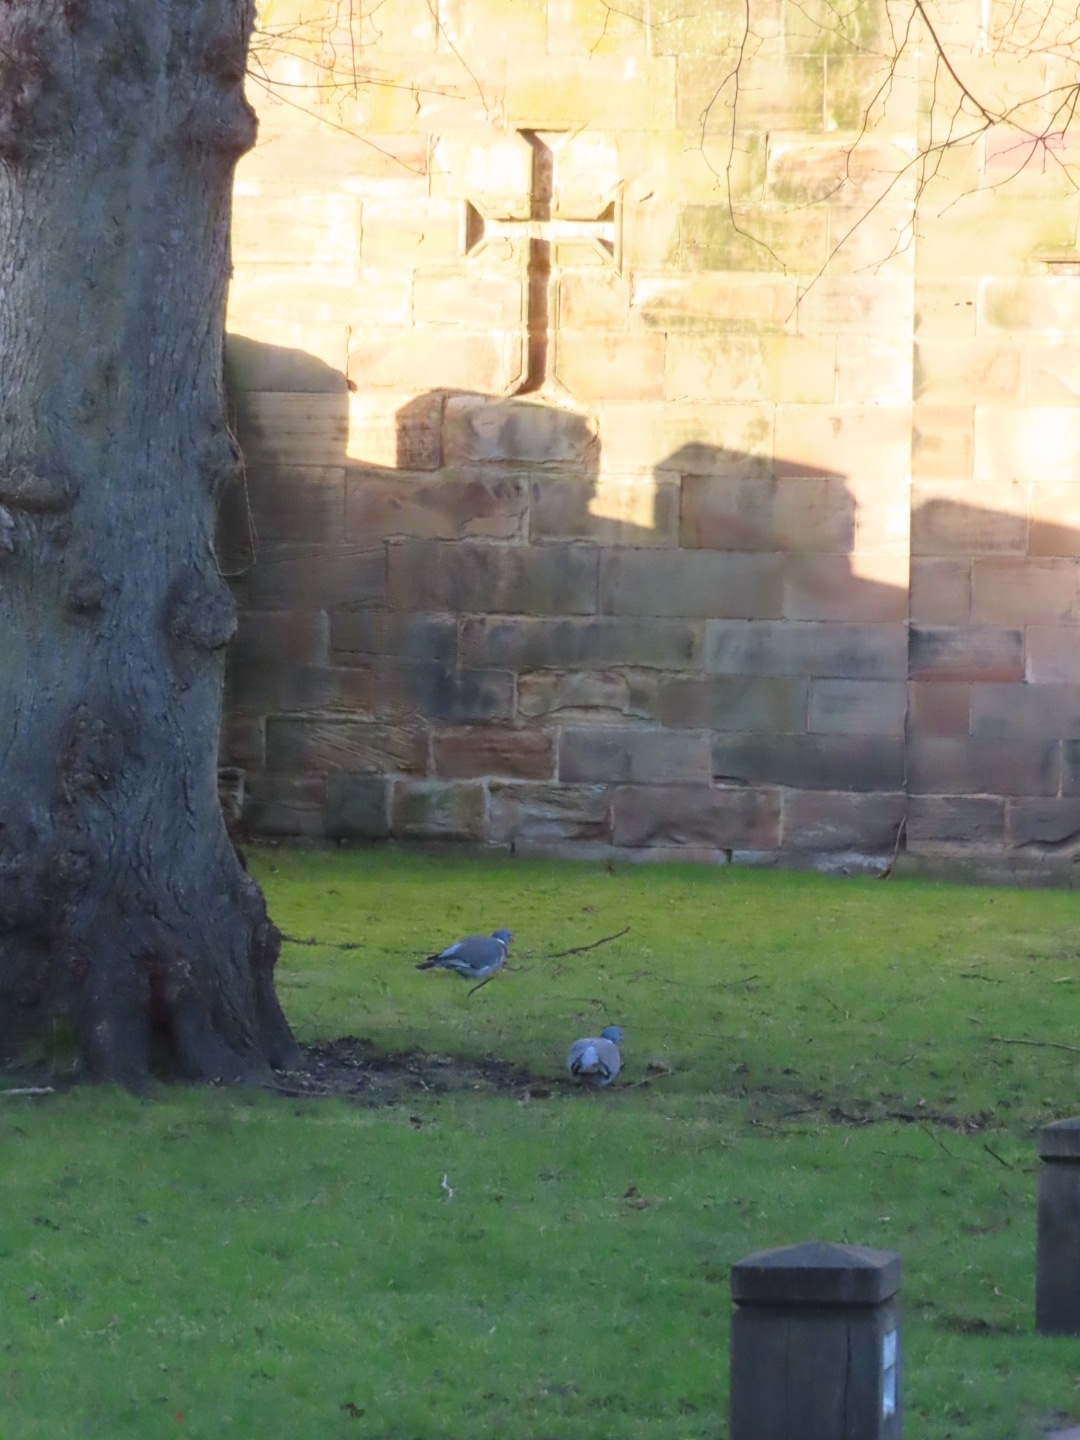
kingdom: Animalia
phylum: Chordata
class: Aves
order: Columbiformes
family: Columbidae
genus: Columba
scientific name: Columba palumbus
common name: Common wood pigeon
